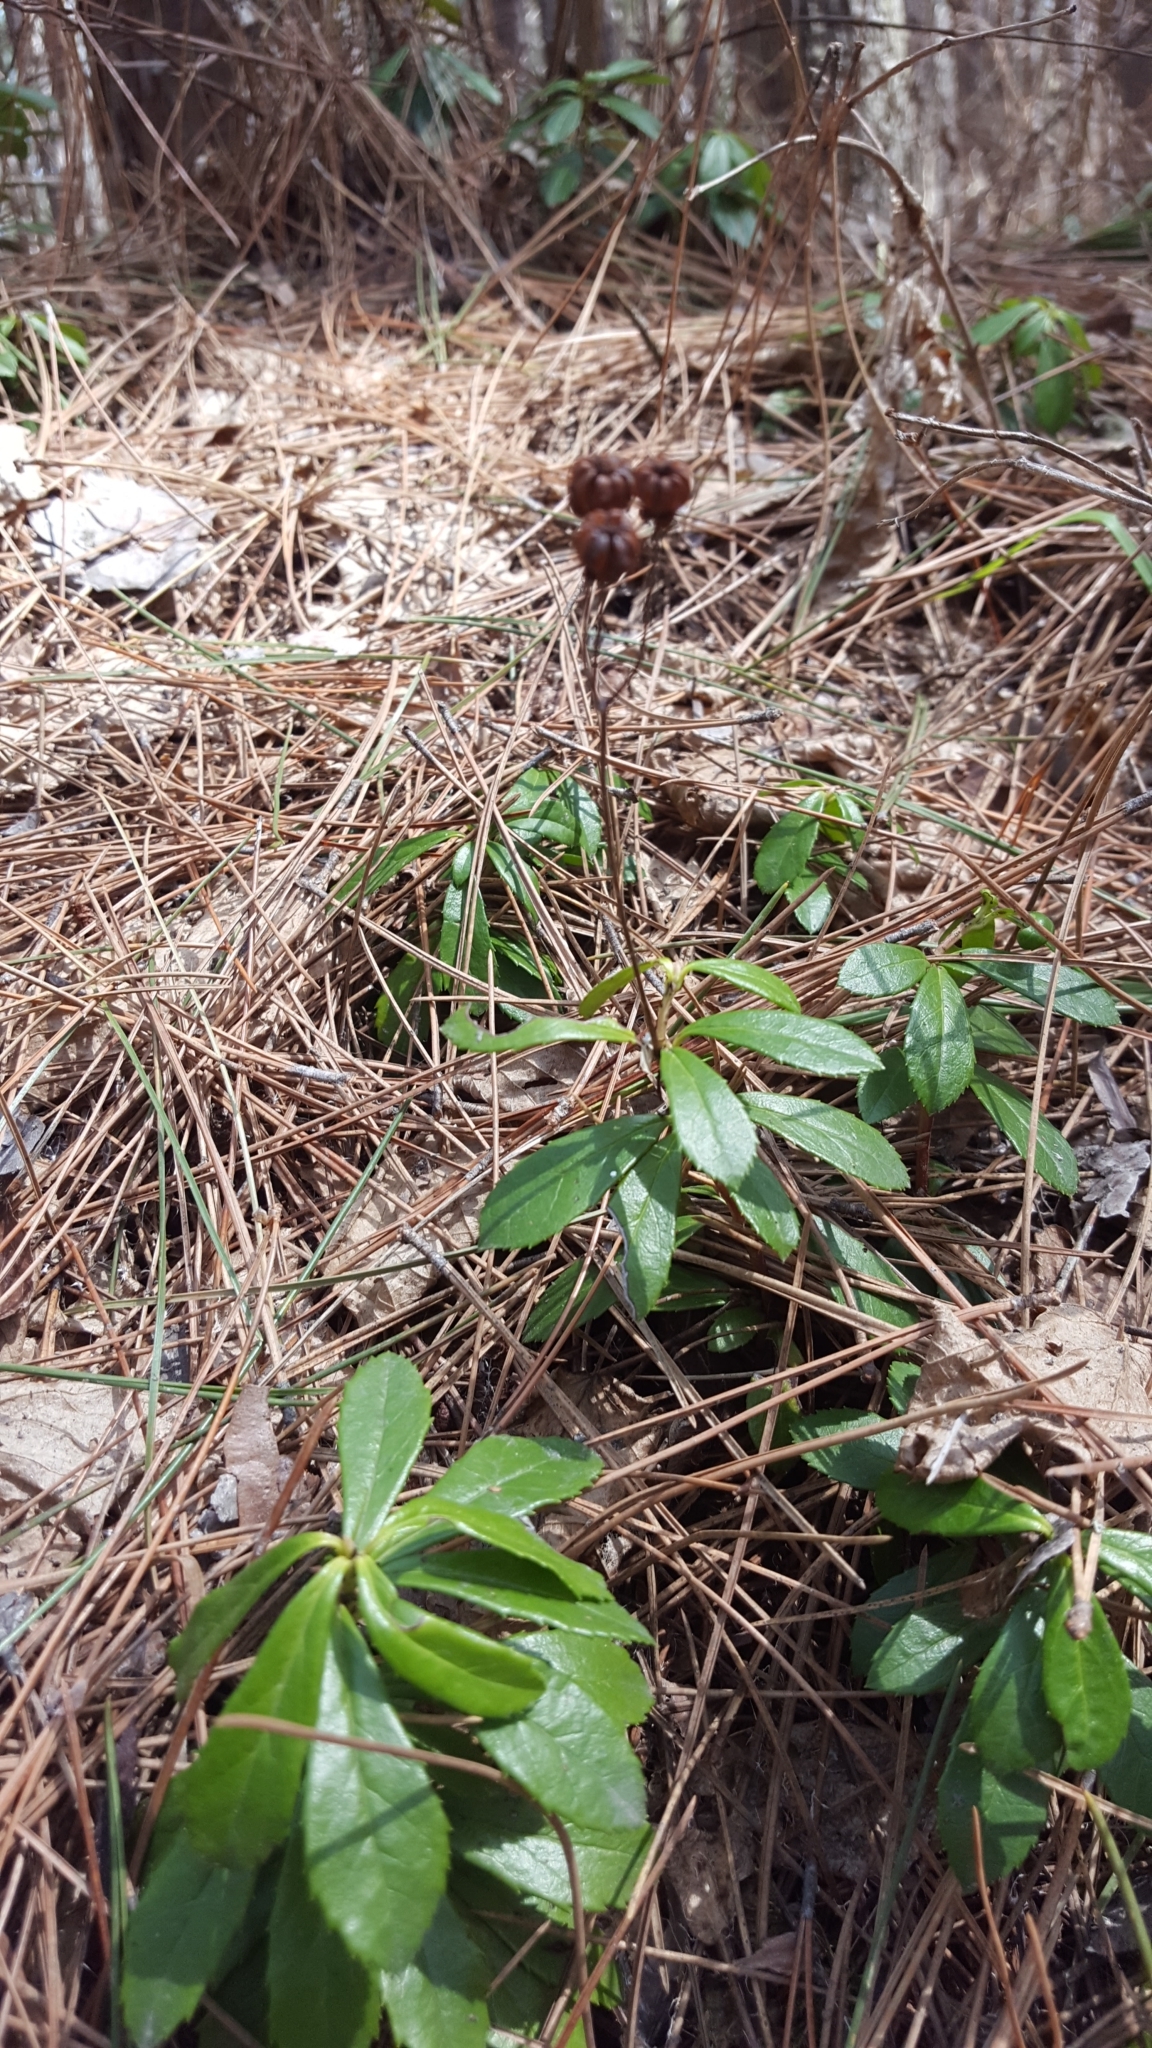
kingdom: Plantae
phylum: Tracheophyta
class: Magnoliopsida
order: Ericales
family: Ericaceae
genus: Chimaphila
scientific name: Chimaphila umbellata
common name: Pipsissewa
